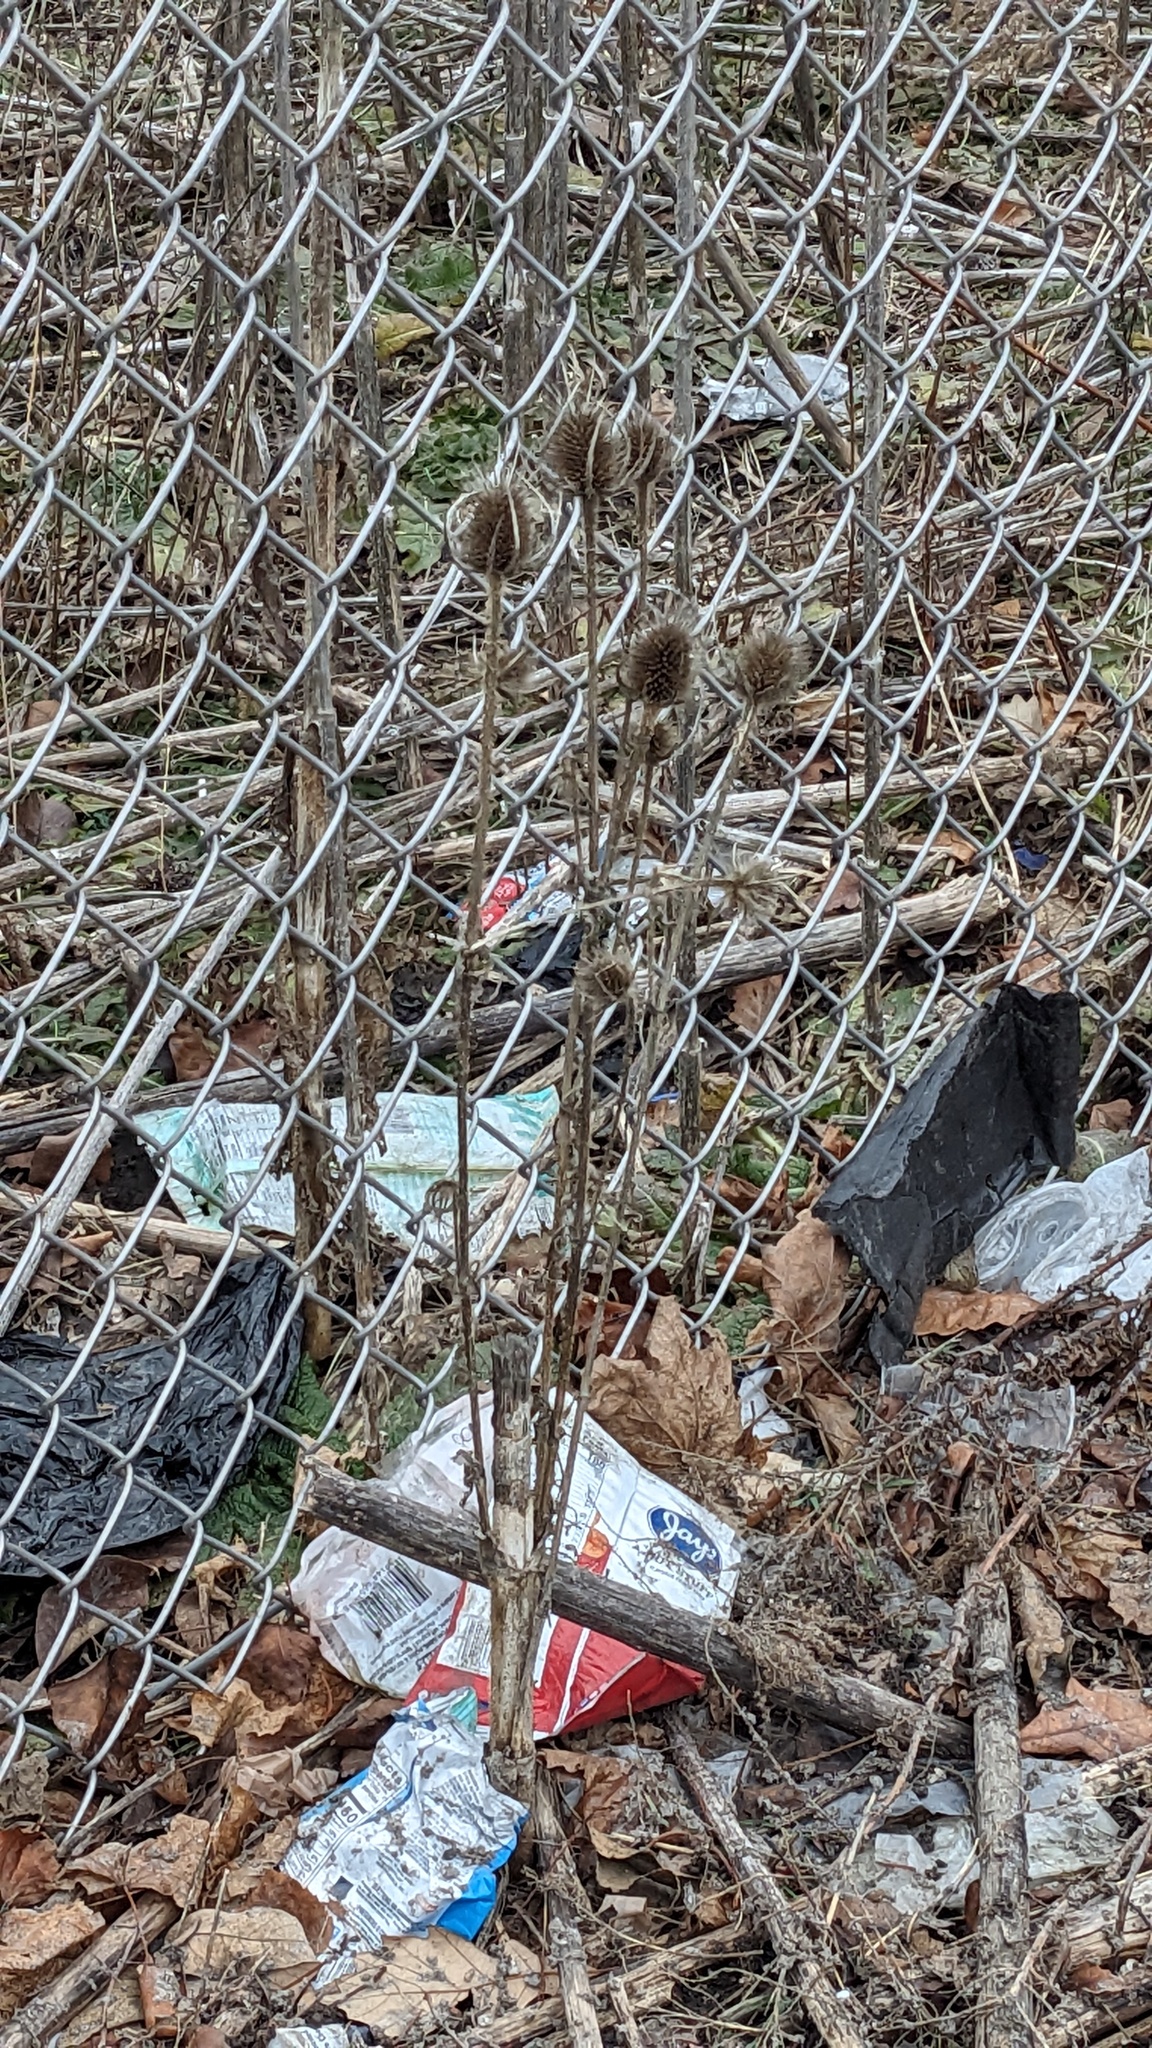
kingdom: Plantae
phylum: Tracheophyta
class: Magnoliopsida
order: Dipsacales
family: Caprifoliaceae
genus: Dipsacus
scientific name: Dipsacus laciniatus
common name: Cut-leaved teasel
